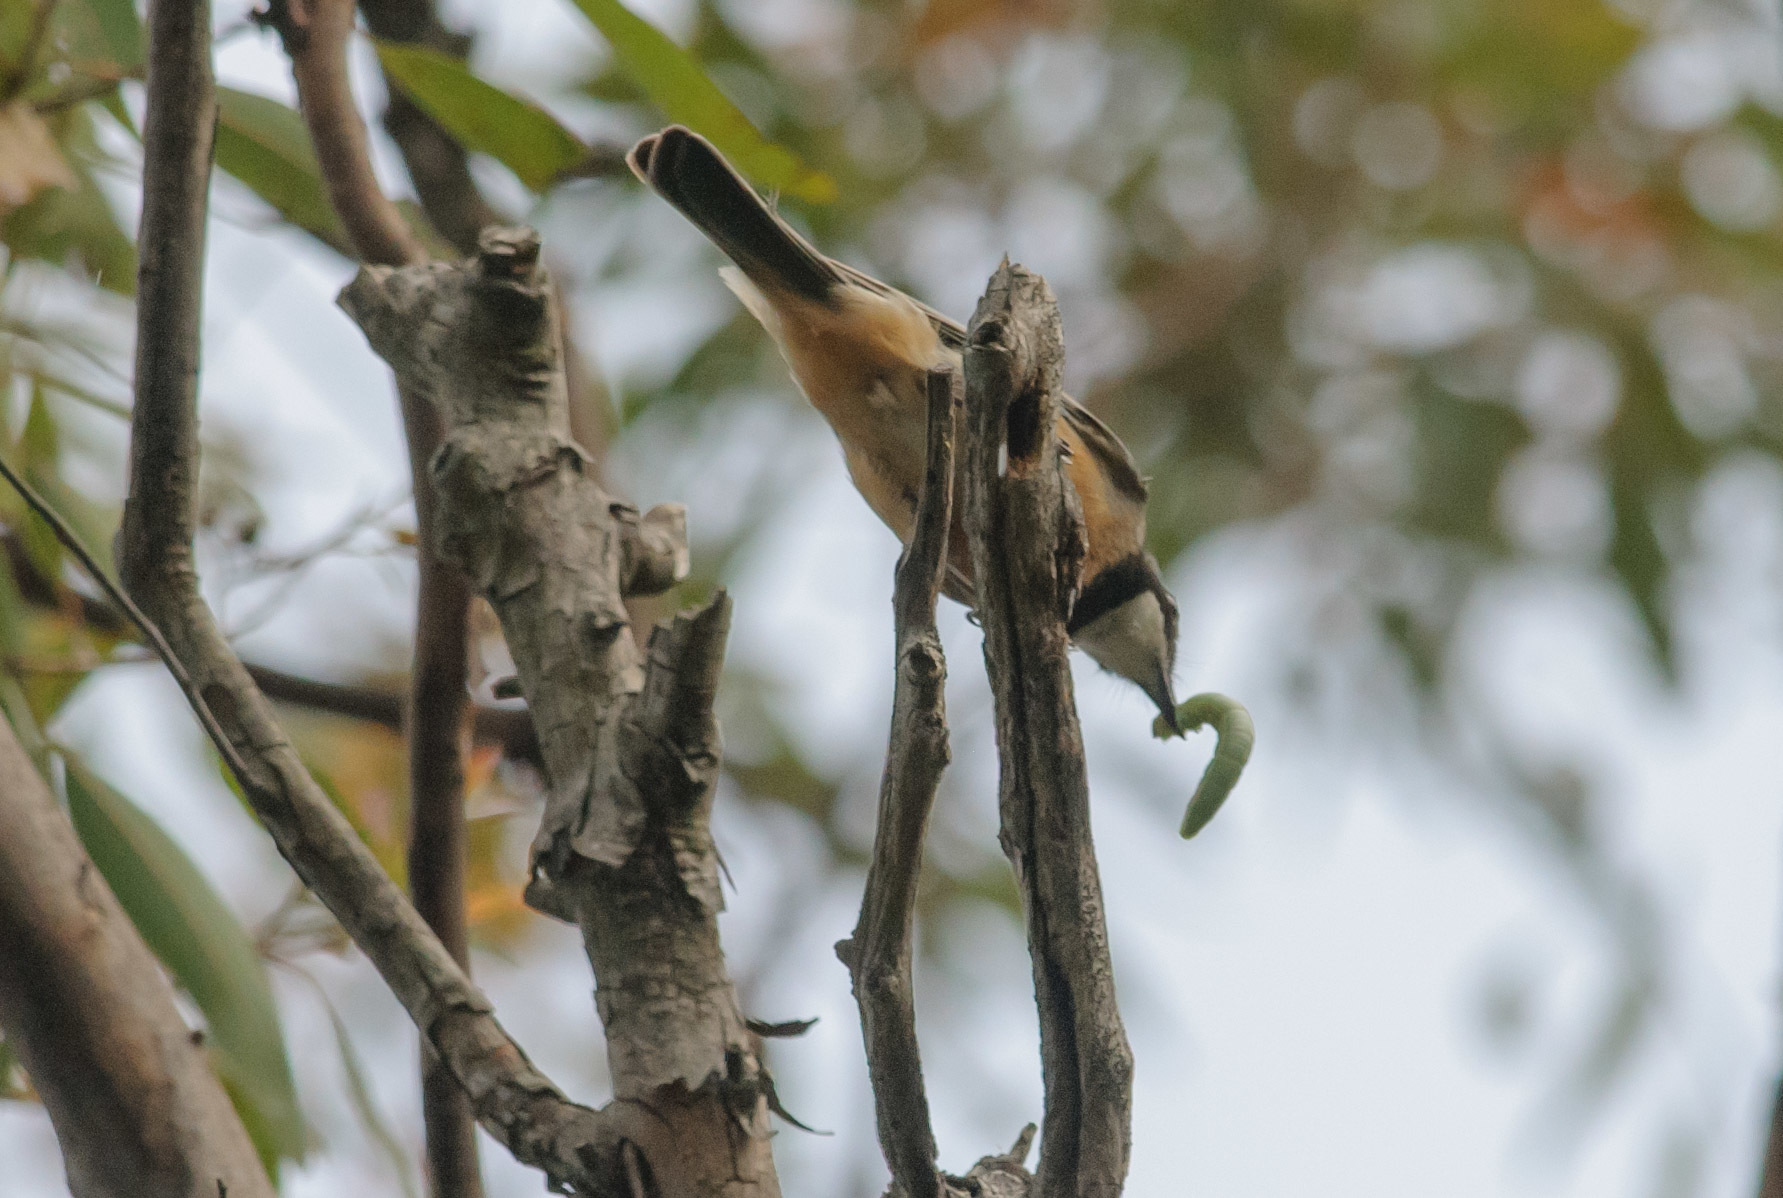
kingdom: Animalia
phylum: Chordata
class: Aves
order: Passeriformes
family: Pachycephalidae
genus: Pachycephala
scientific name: Pachycephala rufiventris
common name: Rufous whistler
